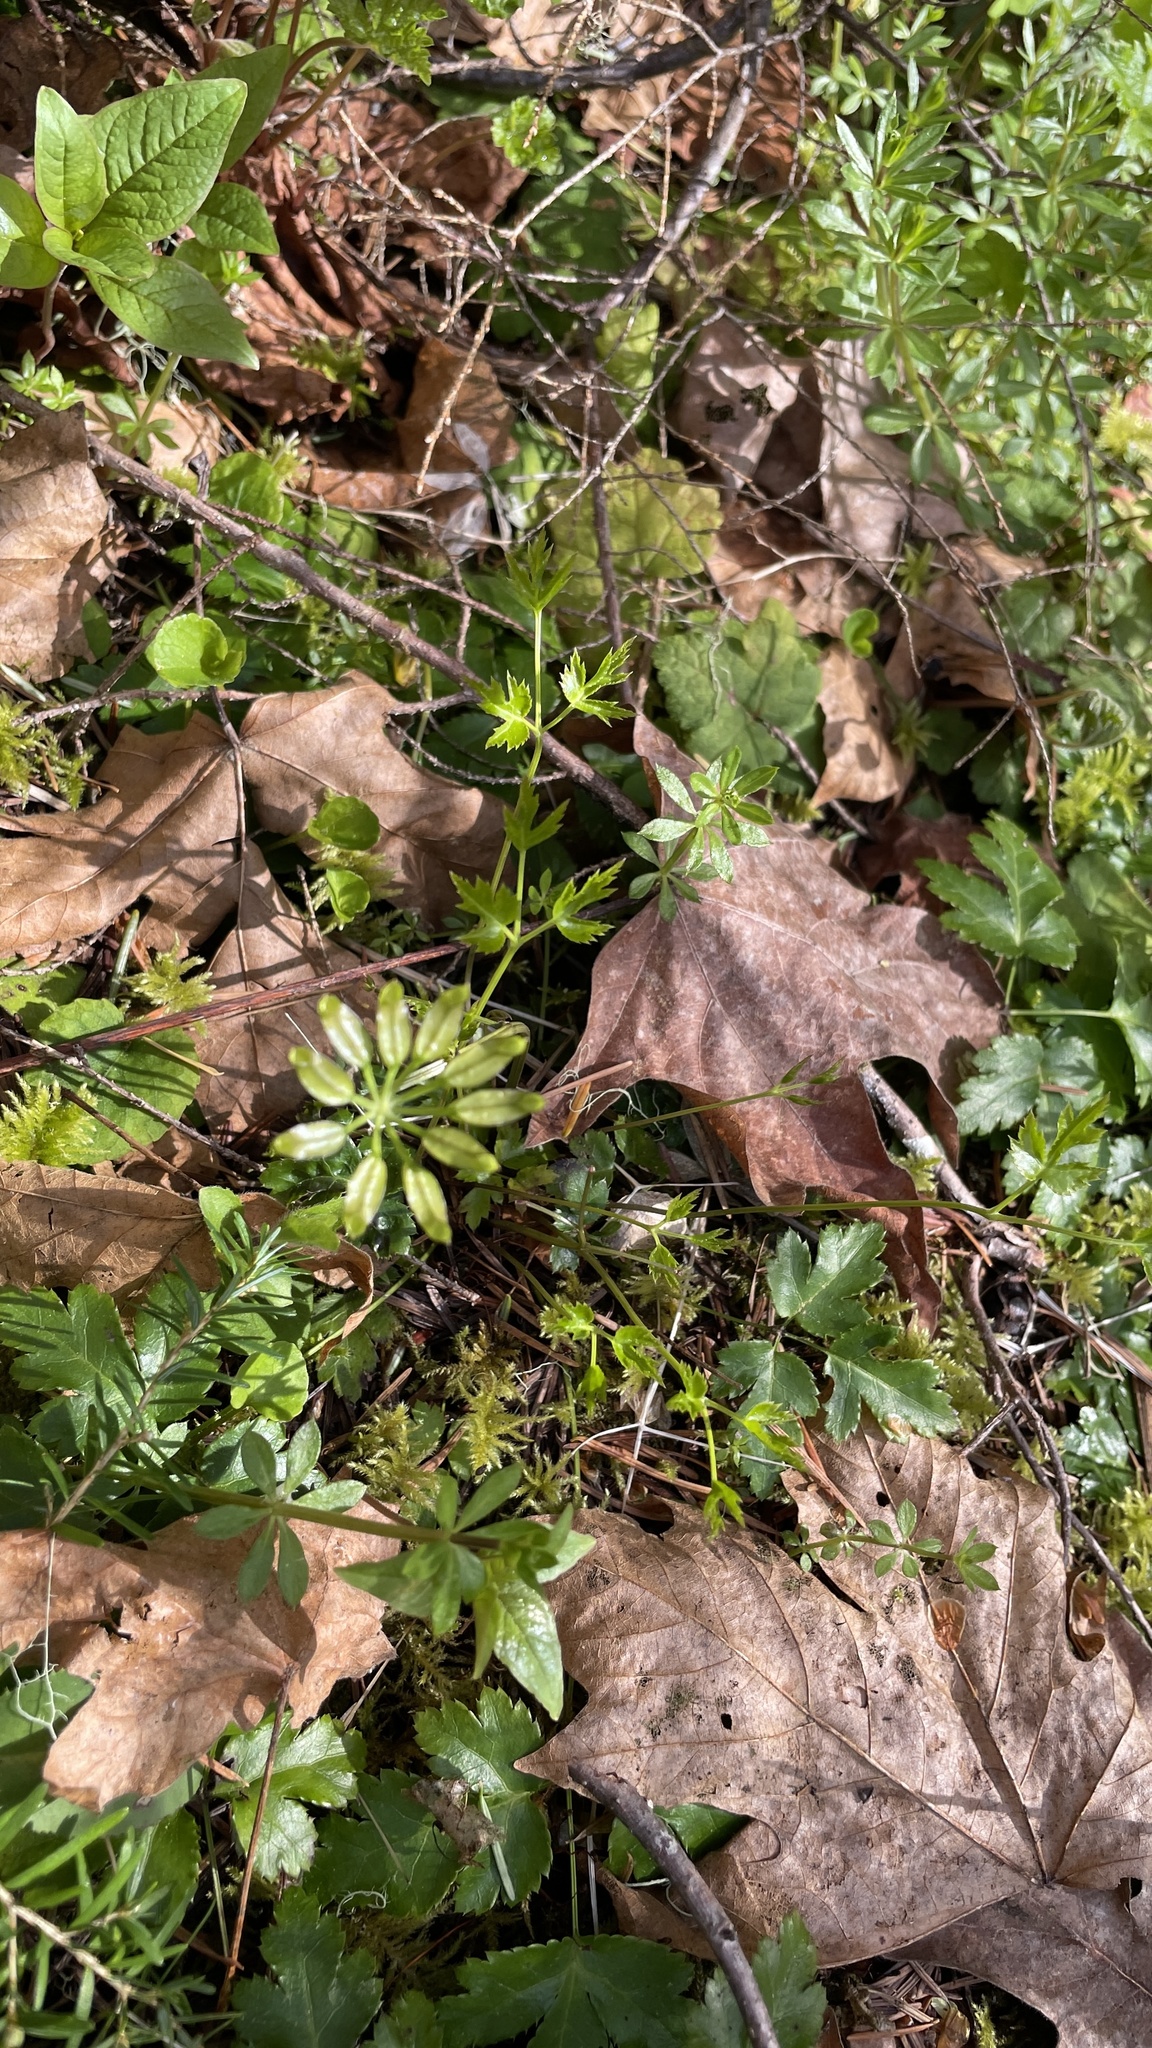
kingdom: Plantae
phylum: Tracheophyta
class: Magnoliopsida
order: Ranunculales
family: Ranunculaceae
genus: Coptis
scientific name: Coptis laciniata
